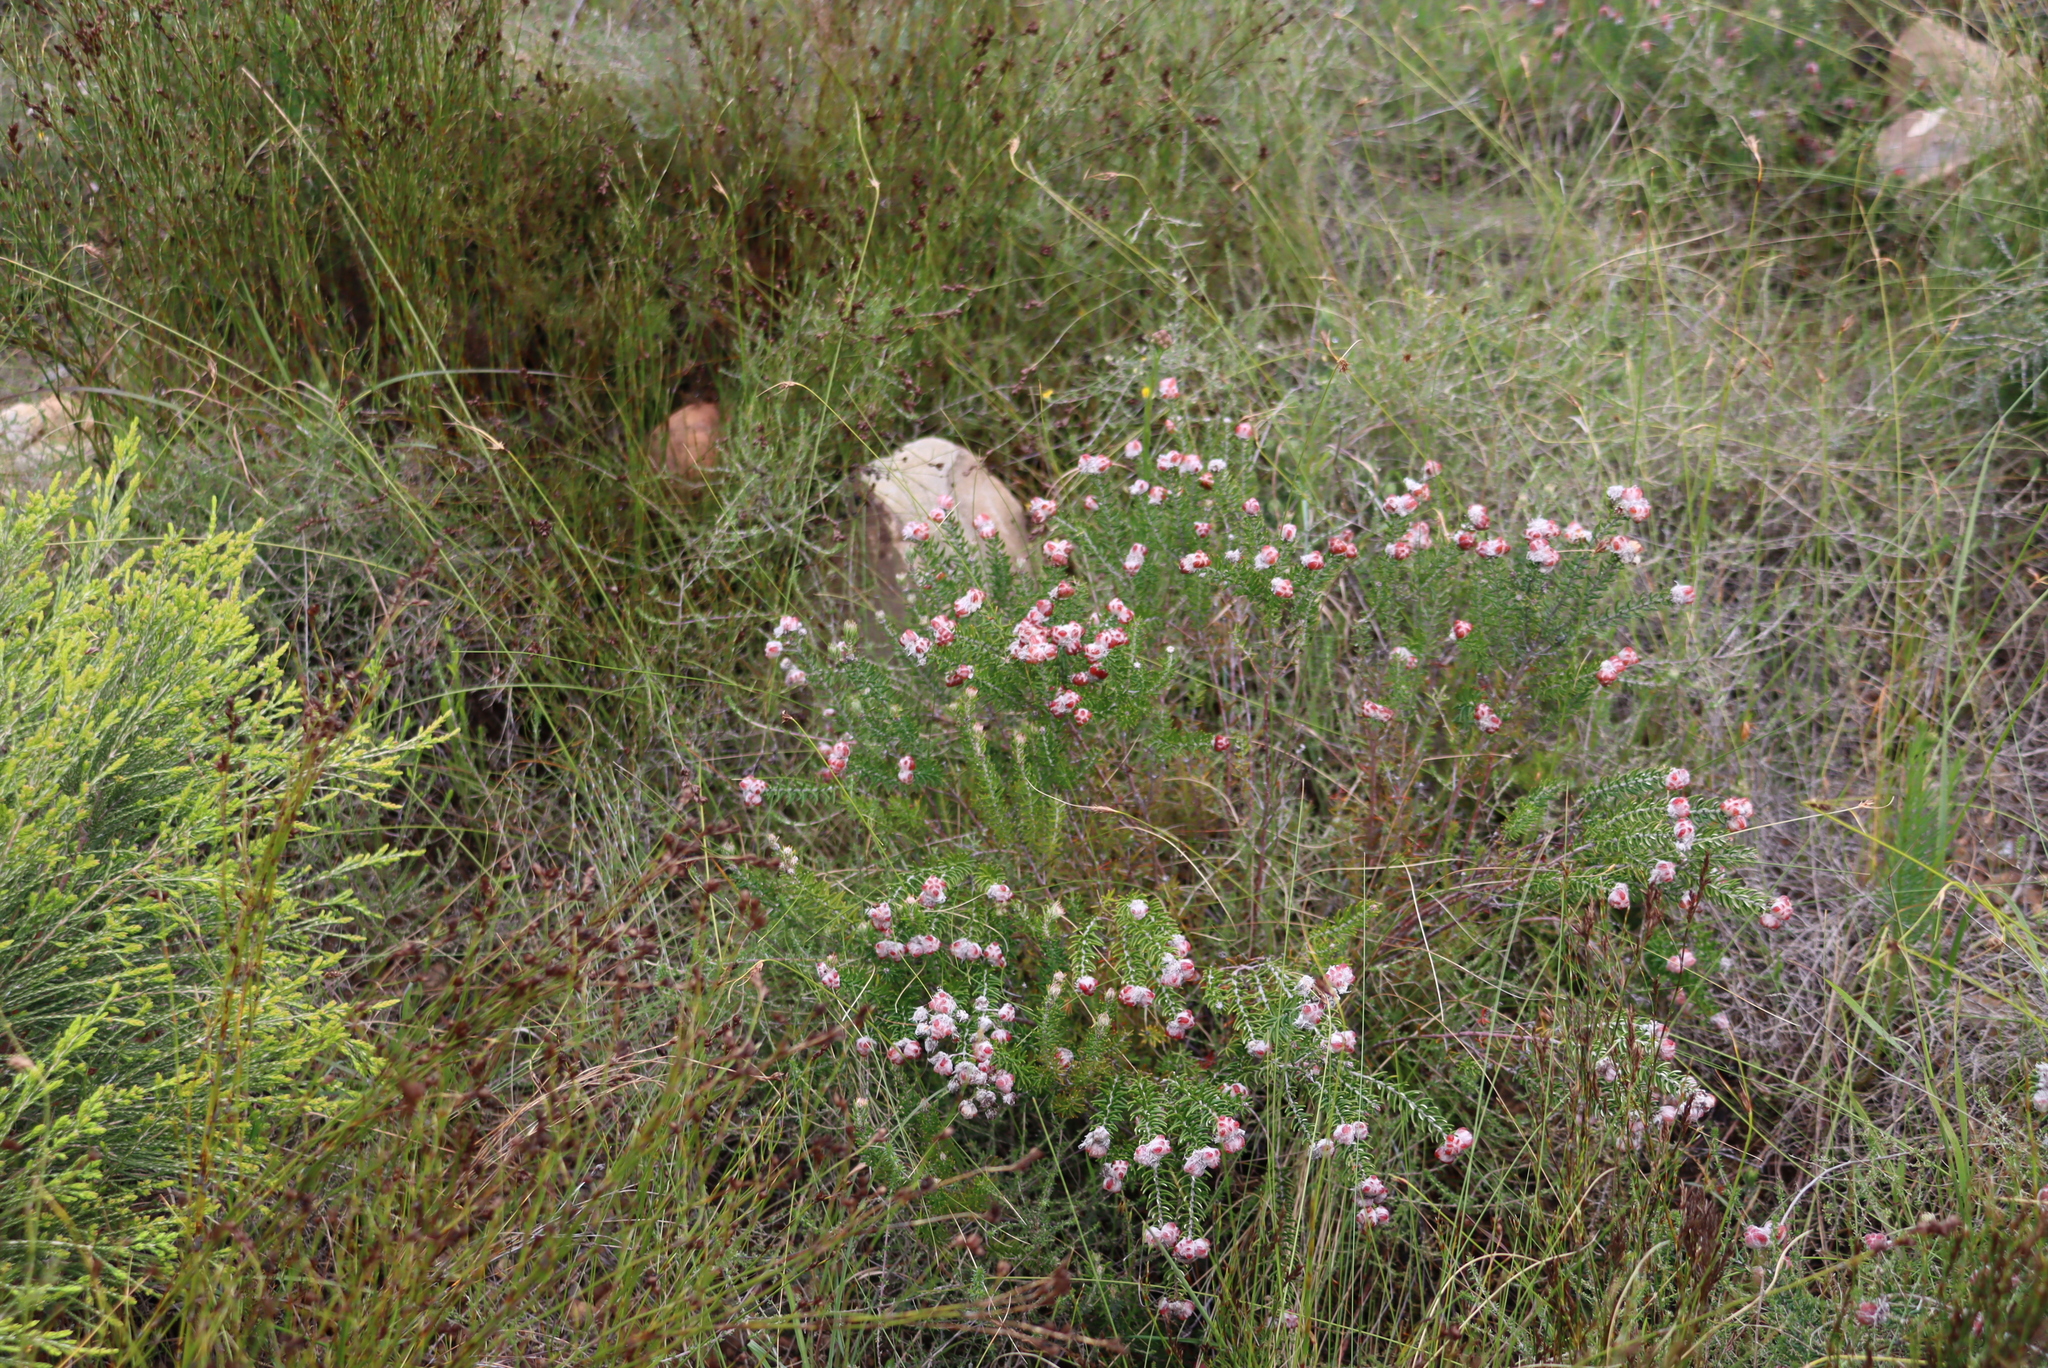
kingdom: Plantae
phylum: Tracheophyta
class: Magnoliopsida
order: Rosales
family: Rhamnaceae
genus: Trichocephalus
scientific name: Trichocephalus stipularis
